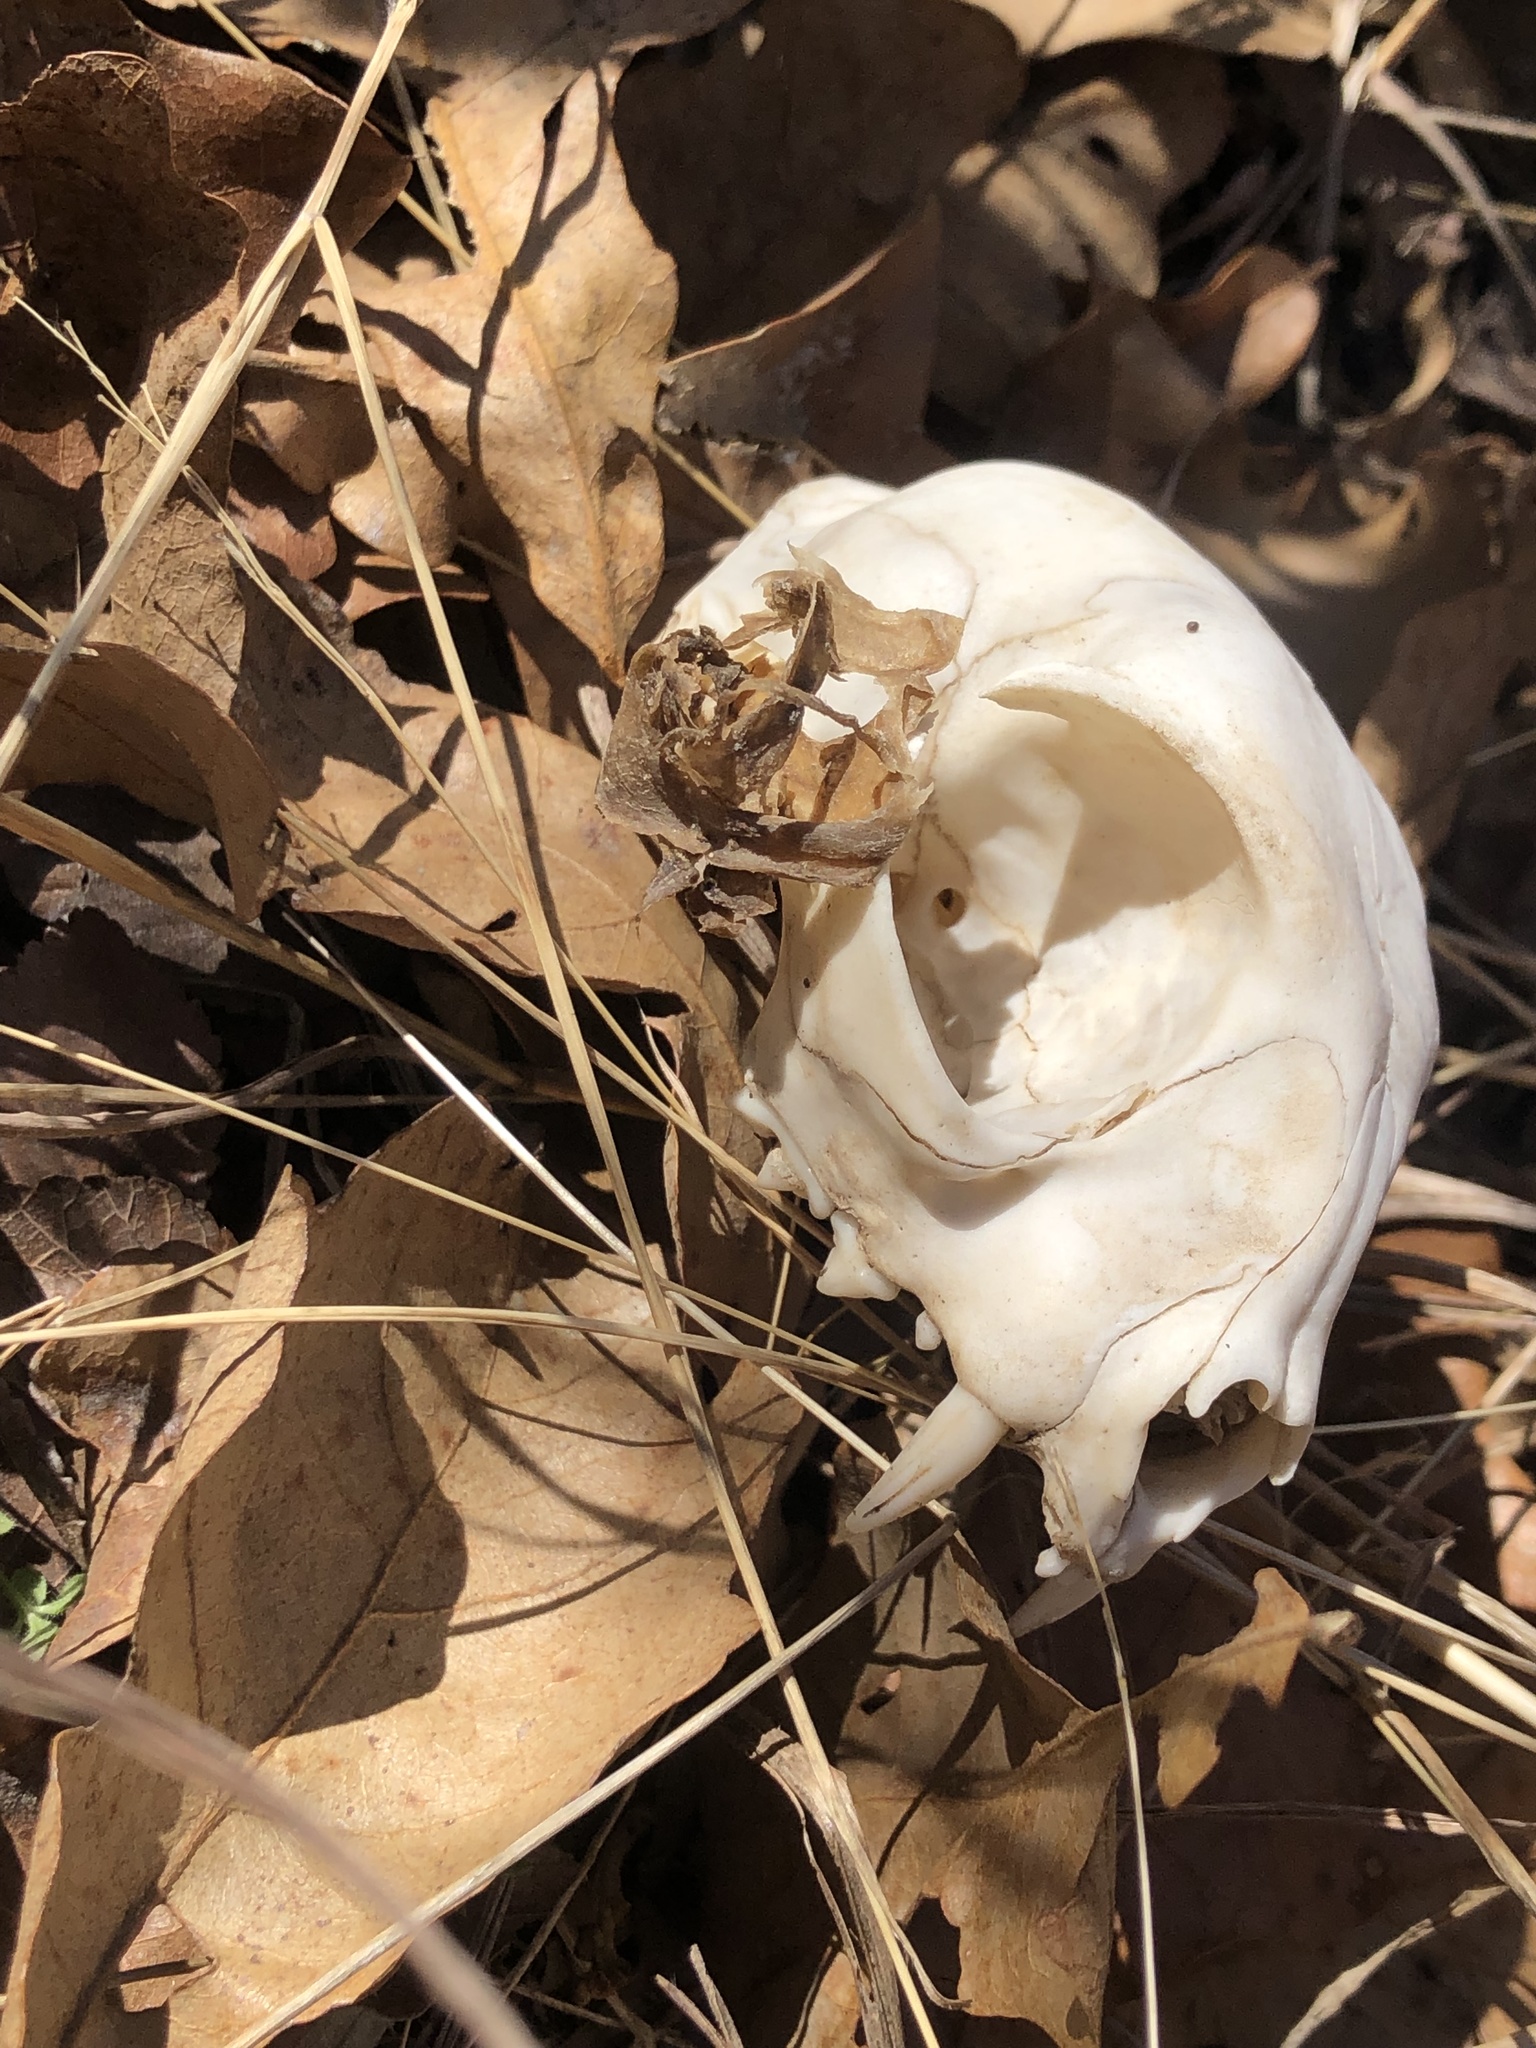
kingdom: Animalia
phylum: Chordata
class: Mammalia
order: Carnivora
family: Felidae
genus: Felis
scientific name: Felis catus
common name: Domestic cat
